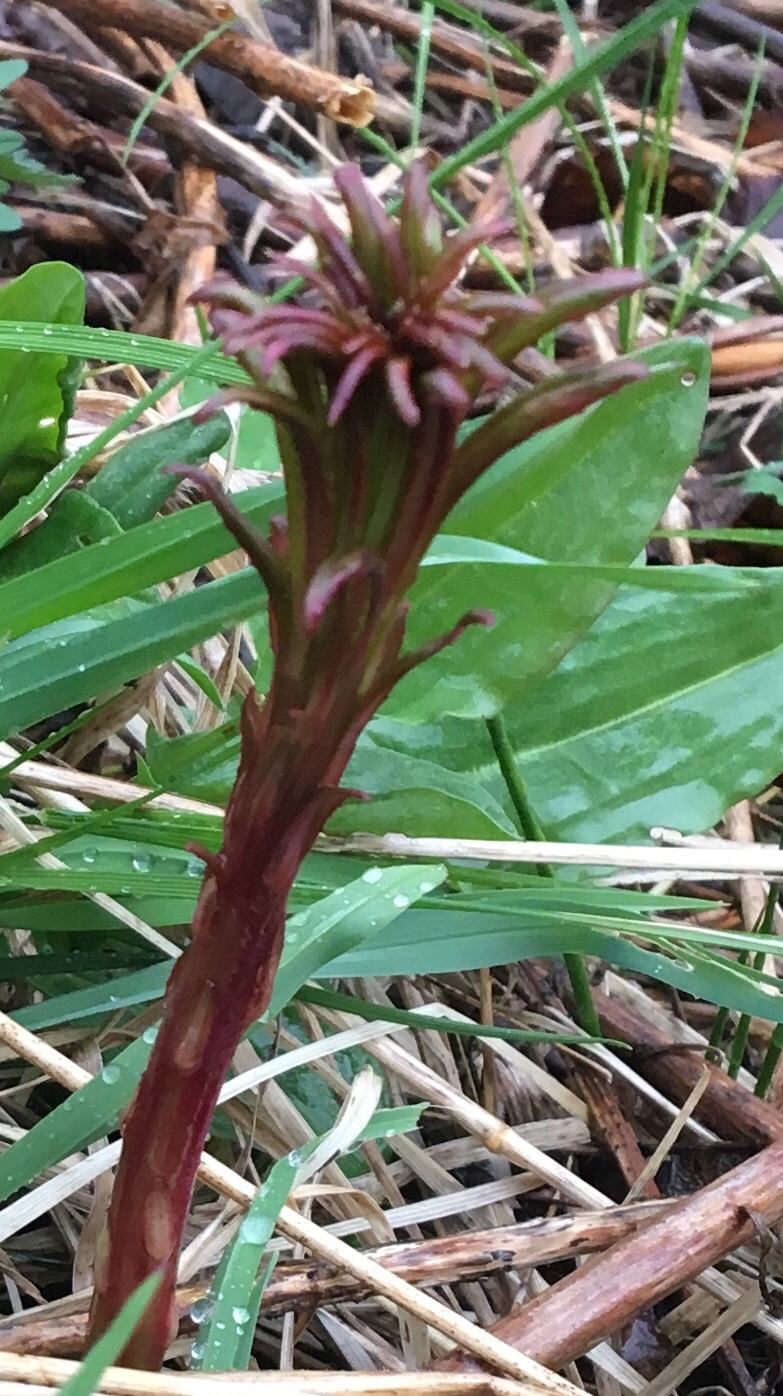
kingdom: Plantae
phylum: Tracheophyta
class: Magnoliopsida
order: Myrtales
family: Onagraceae
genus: Chamaenerion
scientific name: Chamaenerion angustifolium
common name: Fireweed
